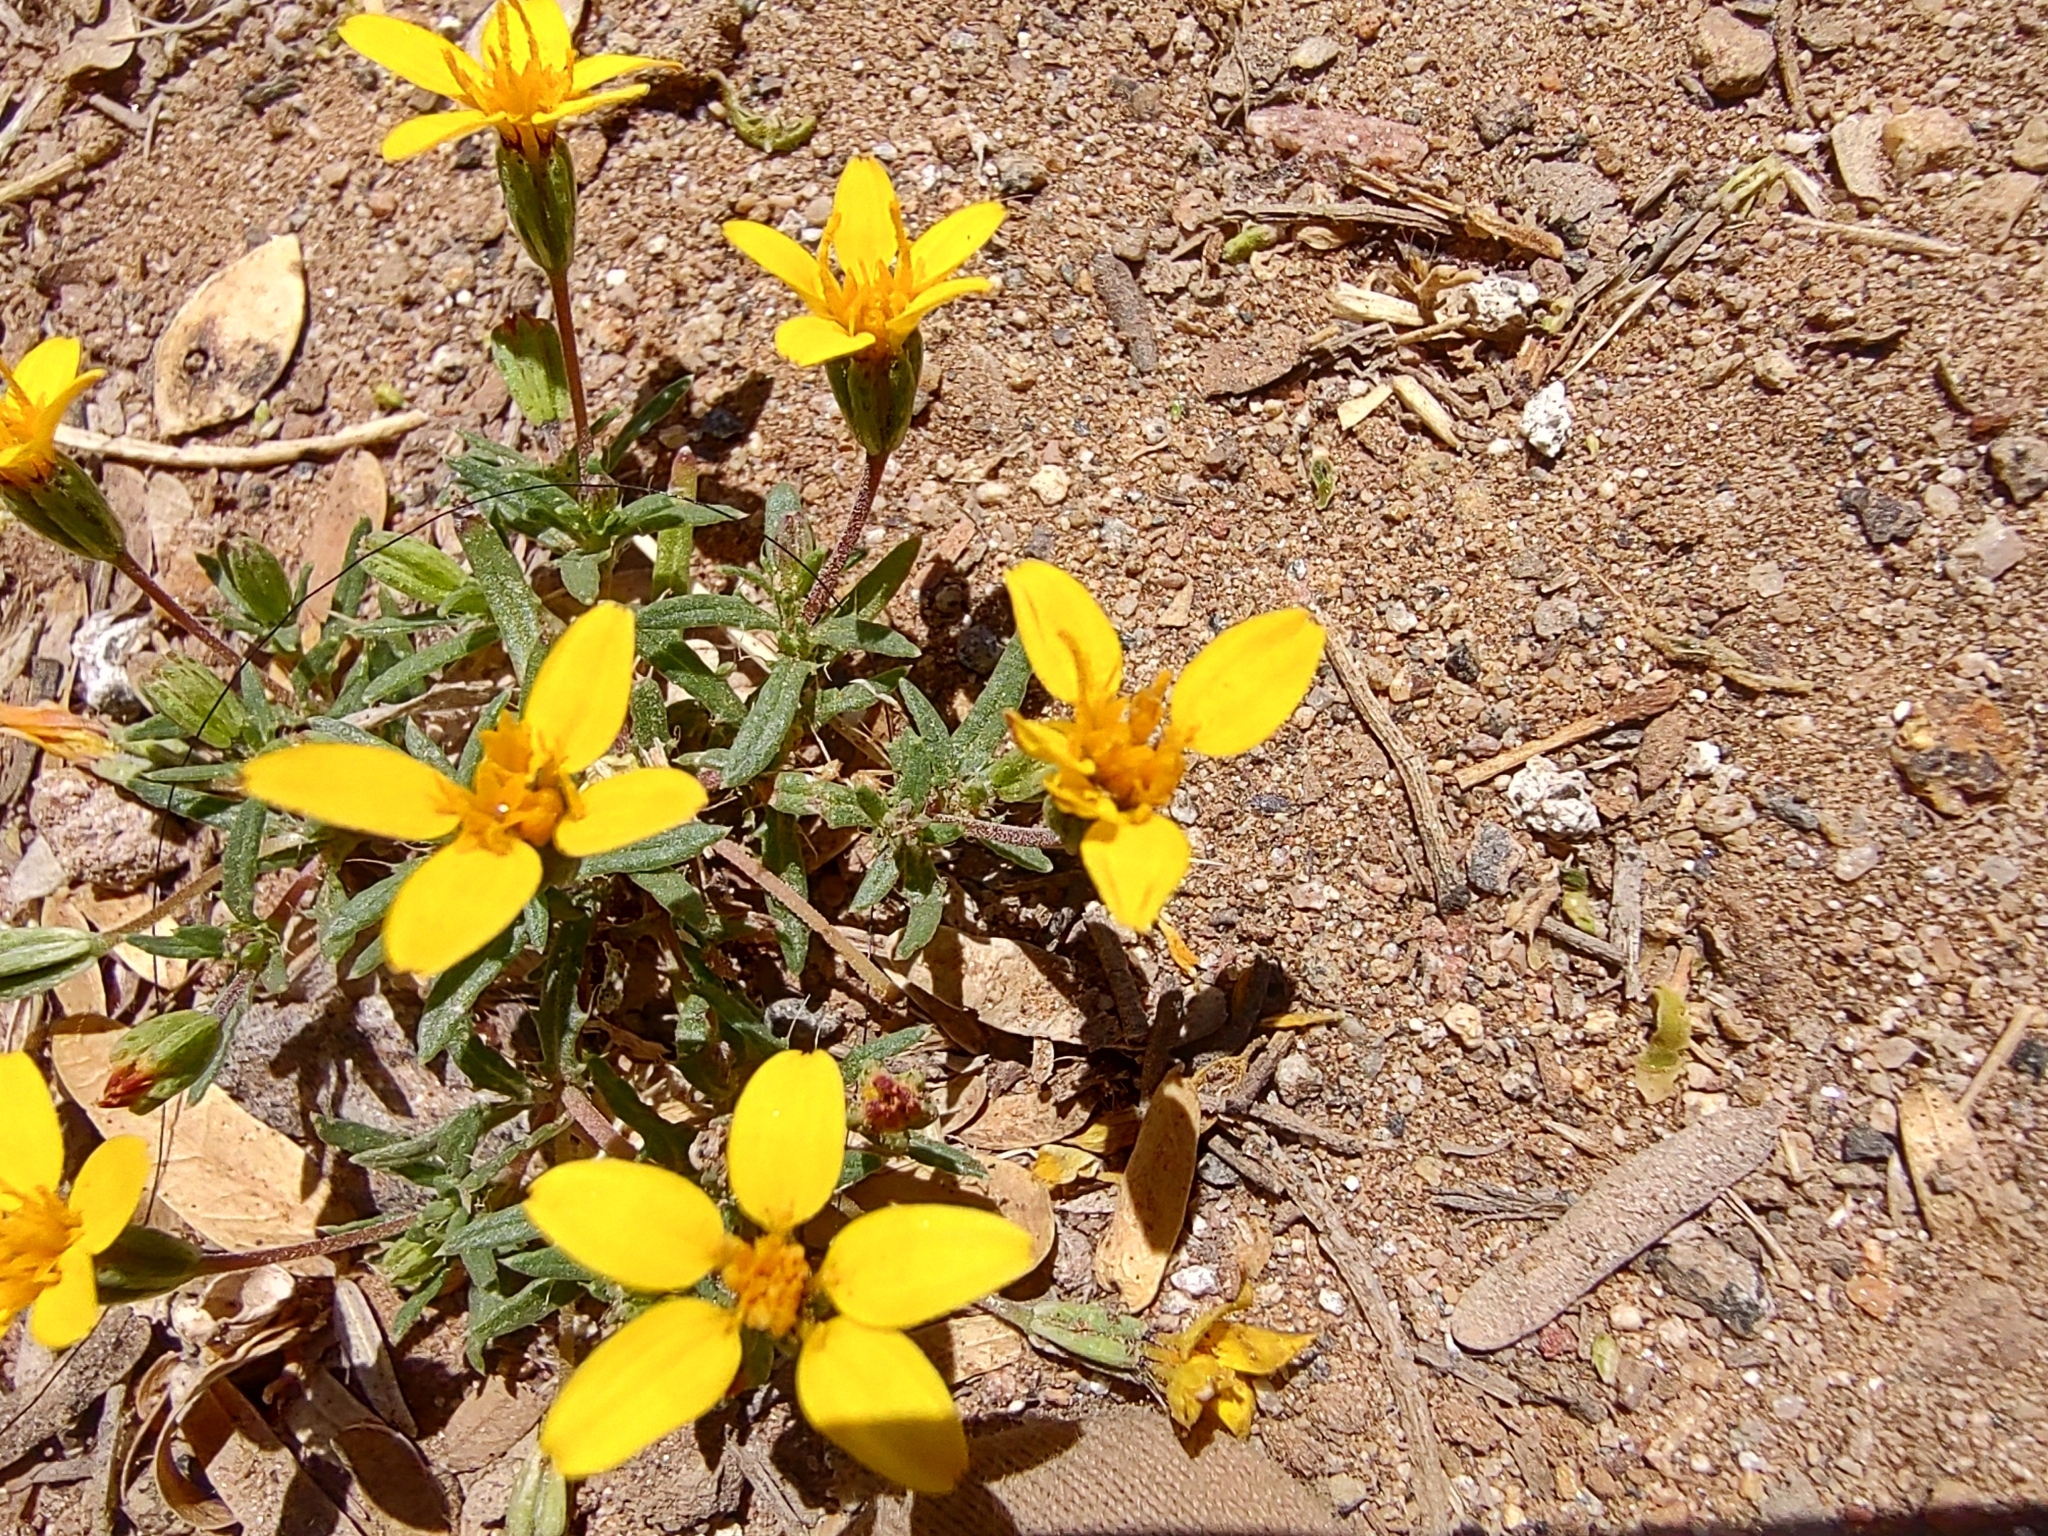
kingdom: Plantae
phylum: Tracheophyta
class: Magnoliopsida
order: Asterales
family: Asteraceae
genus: Pectis
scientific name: Pectis multiseta
